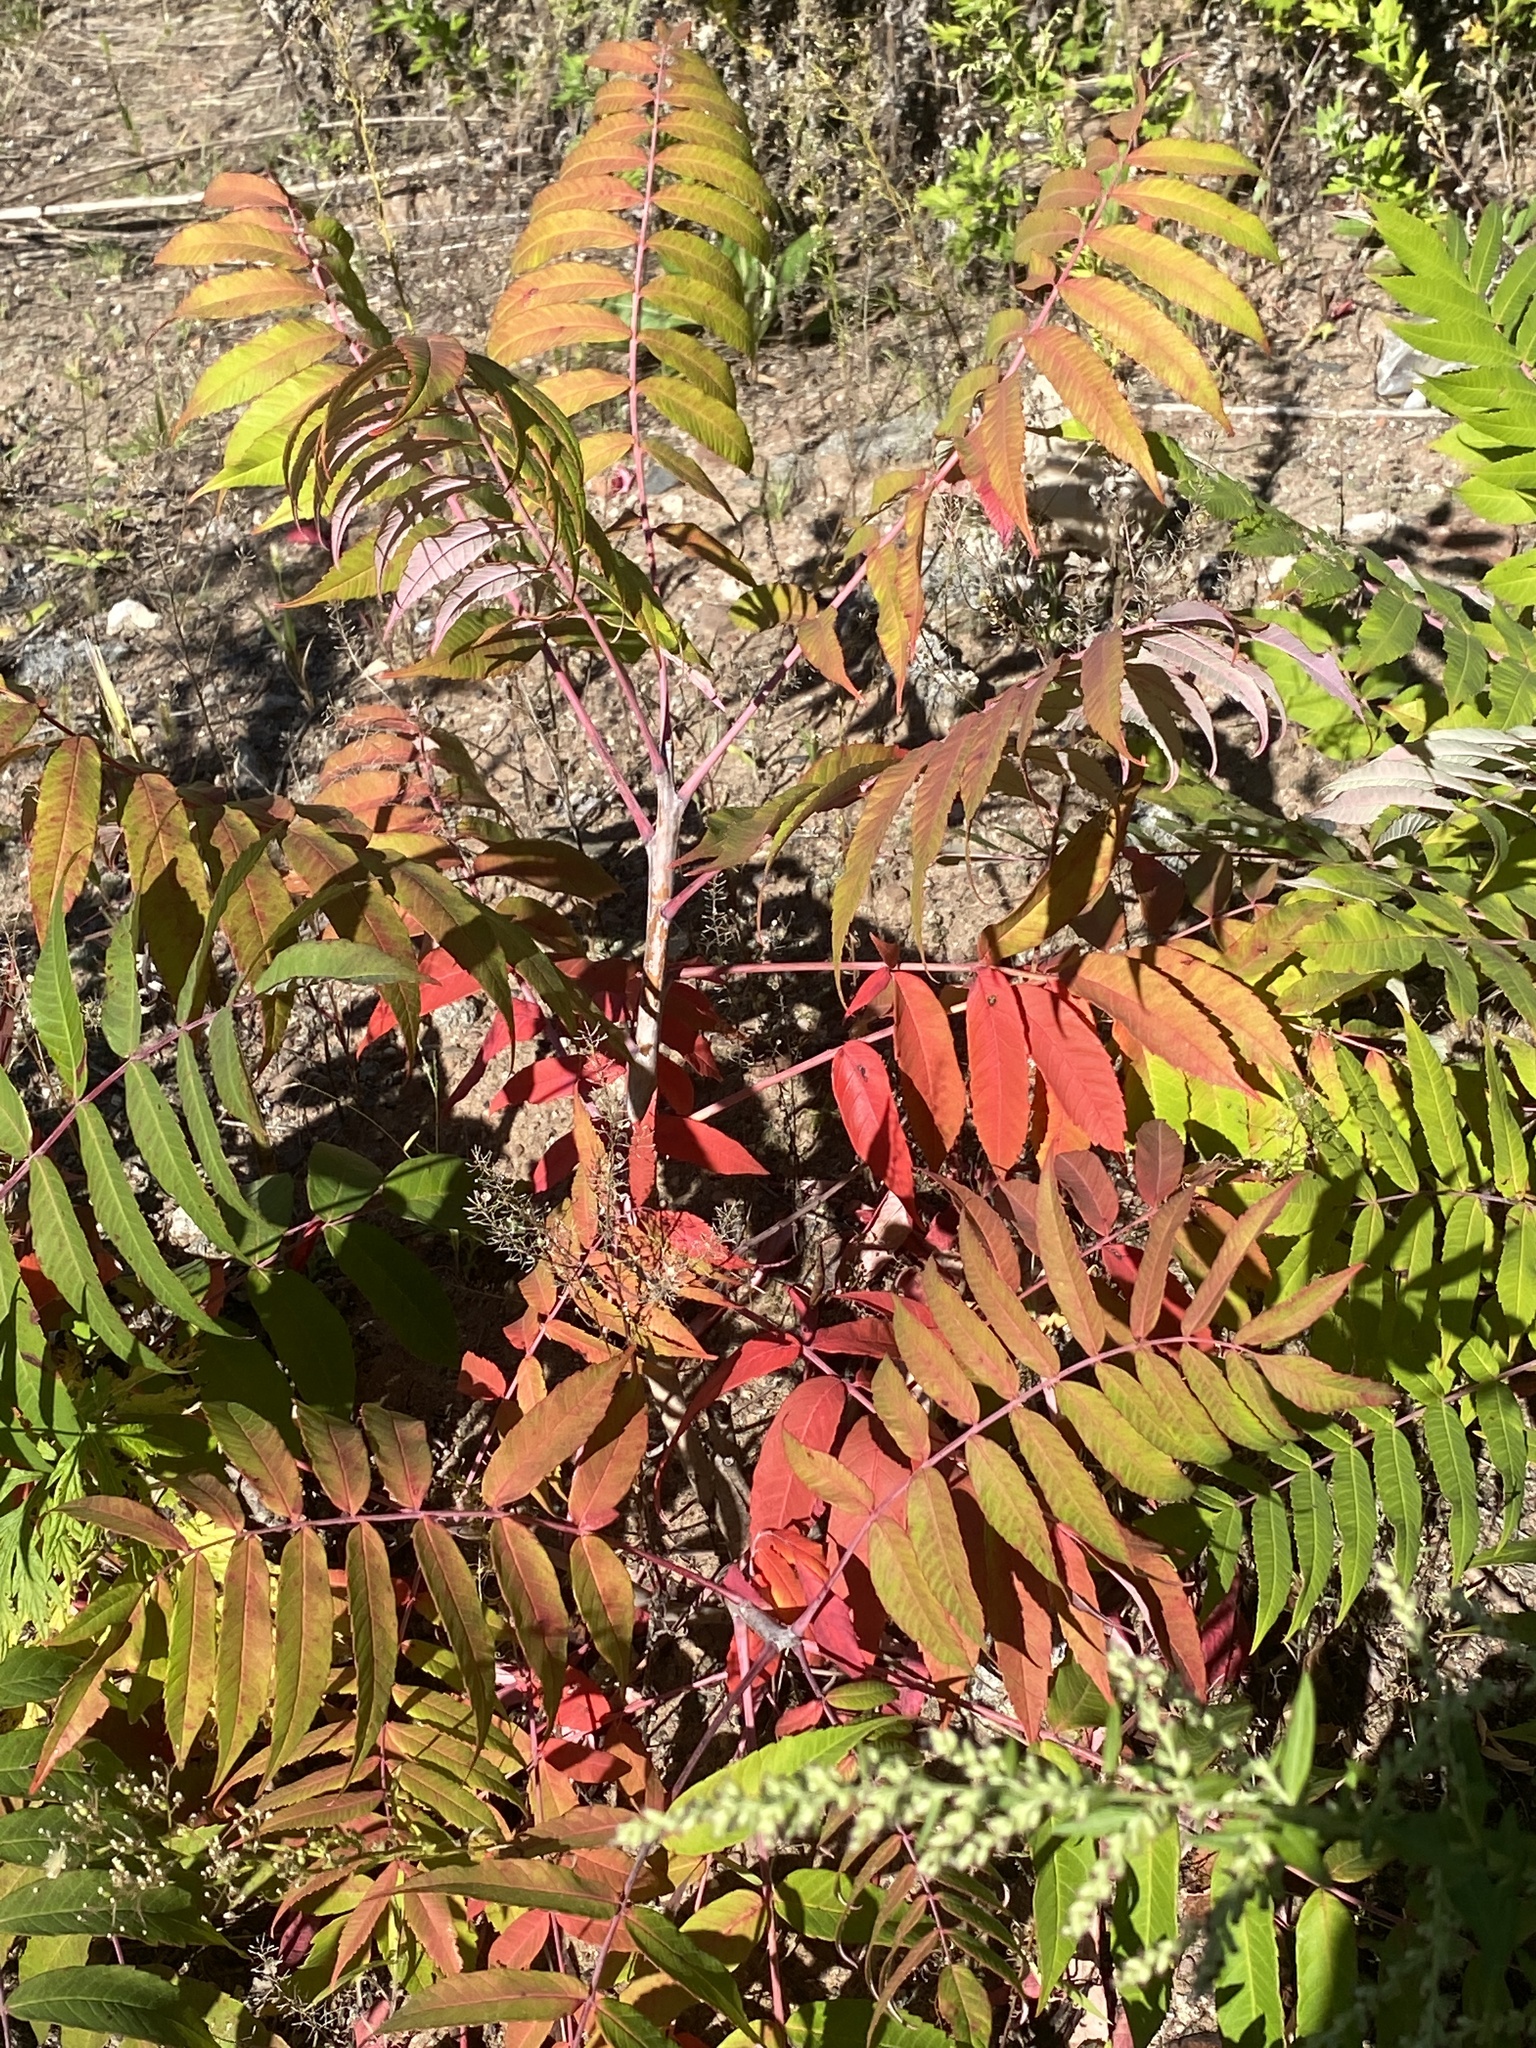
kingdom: Plantae
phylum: Tracheophyta
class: Magnoliopsida
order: Sapindales
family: Anacardiaceae
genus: Rhus
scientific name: Rhus glabra
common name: Scarlet sumac
